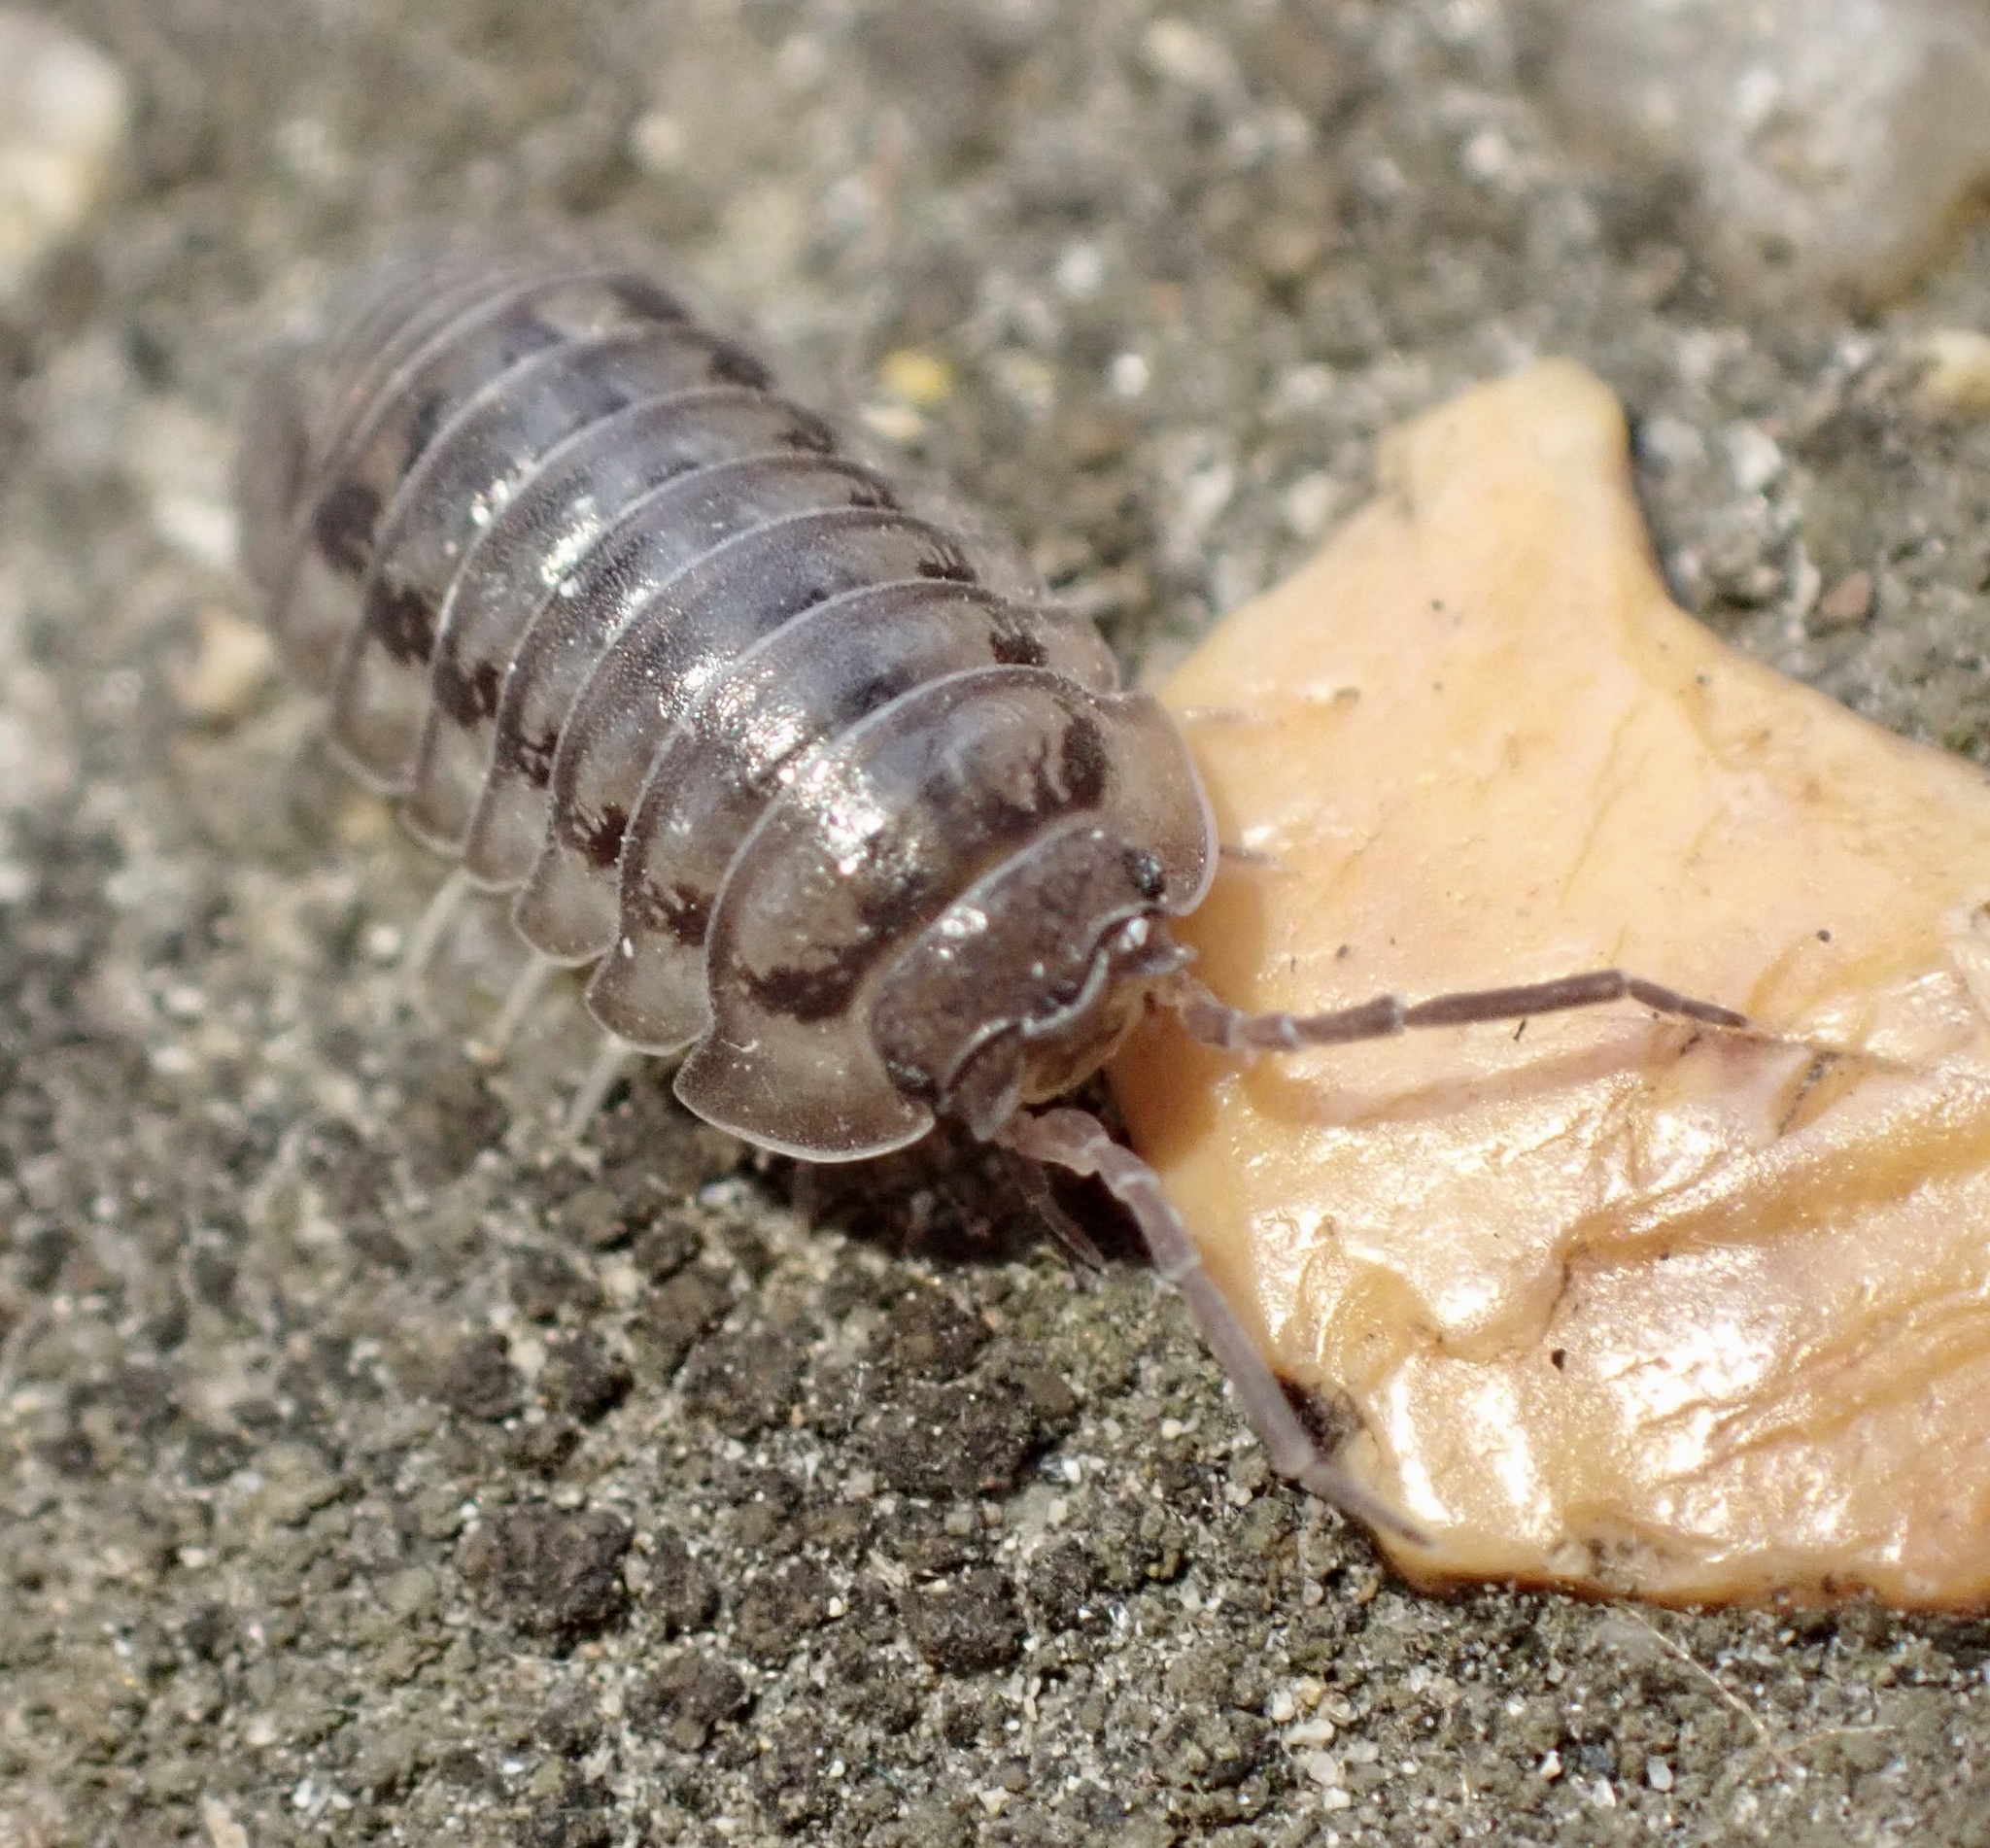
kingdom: Animalia
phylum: Arthropoda
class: Malacostraca
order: Isopoda
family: Armadillidiidae
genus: Armadillidium
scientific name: Armadillidium nasatum
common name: Isopod
